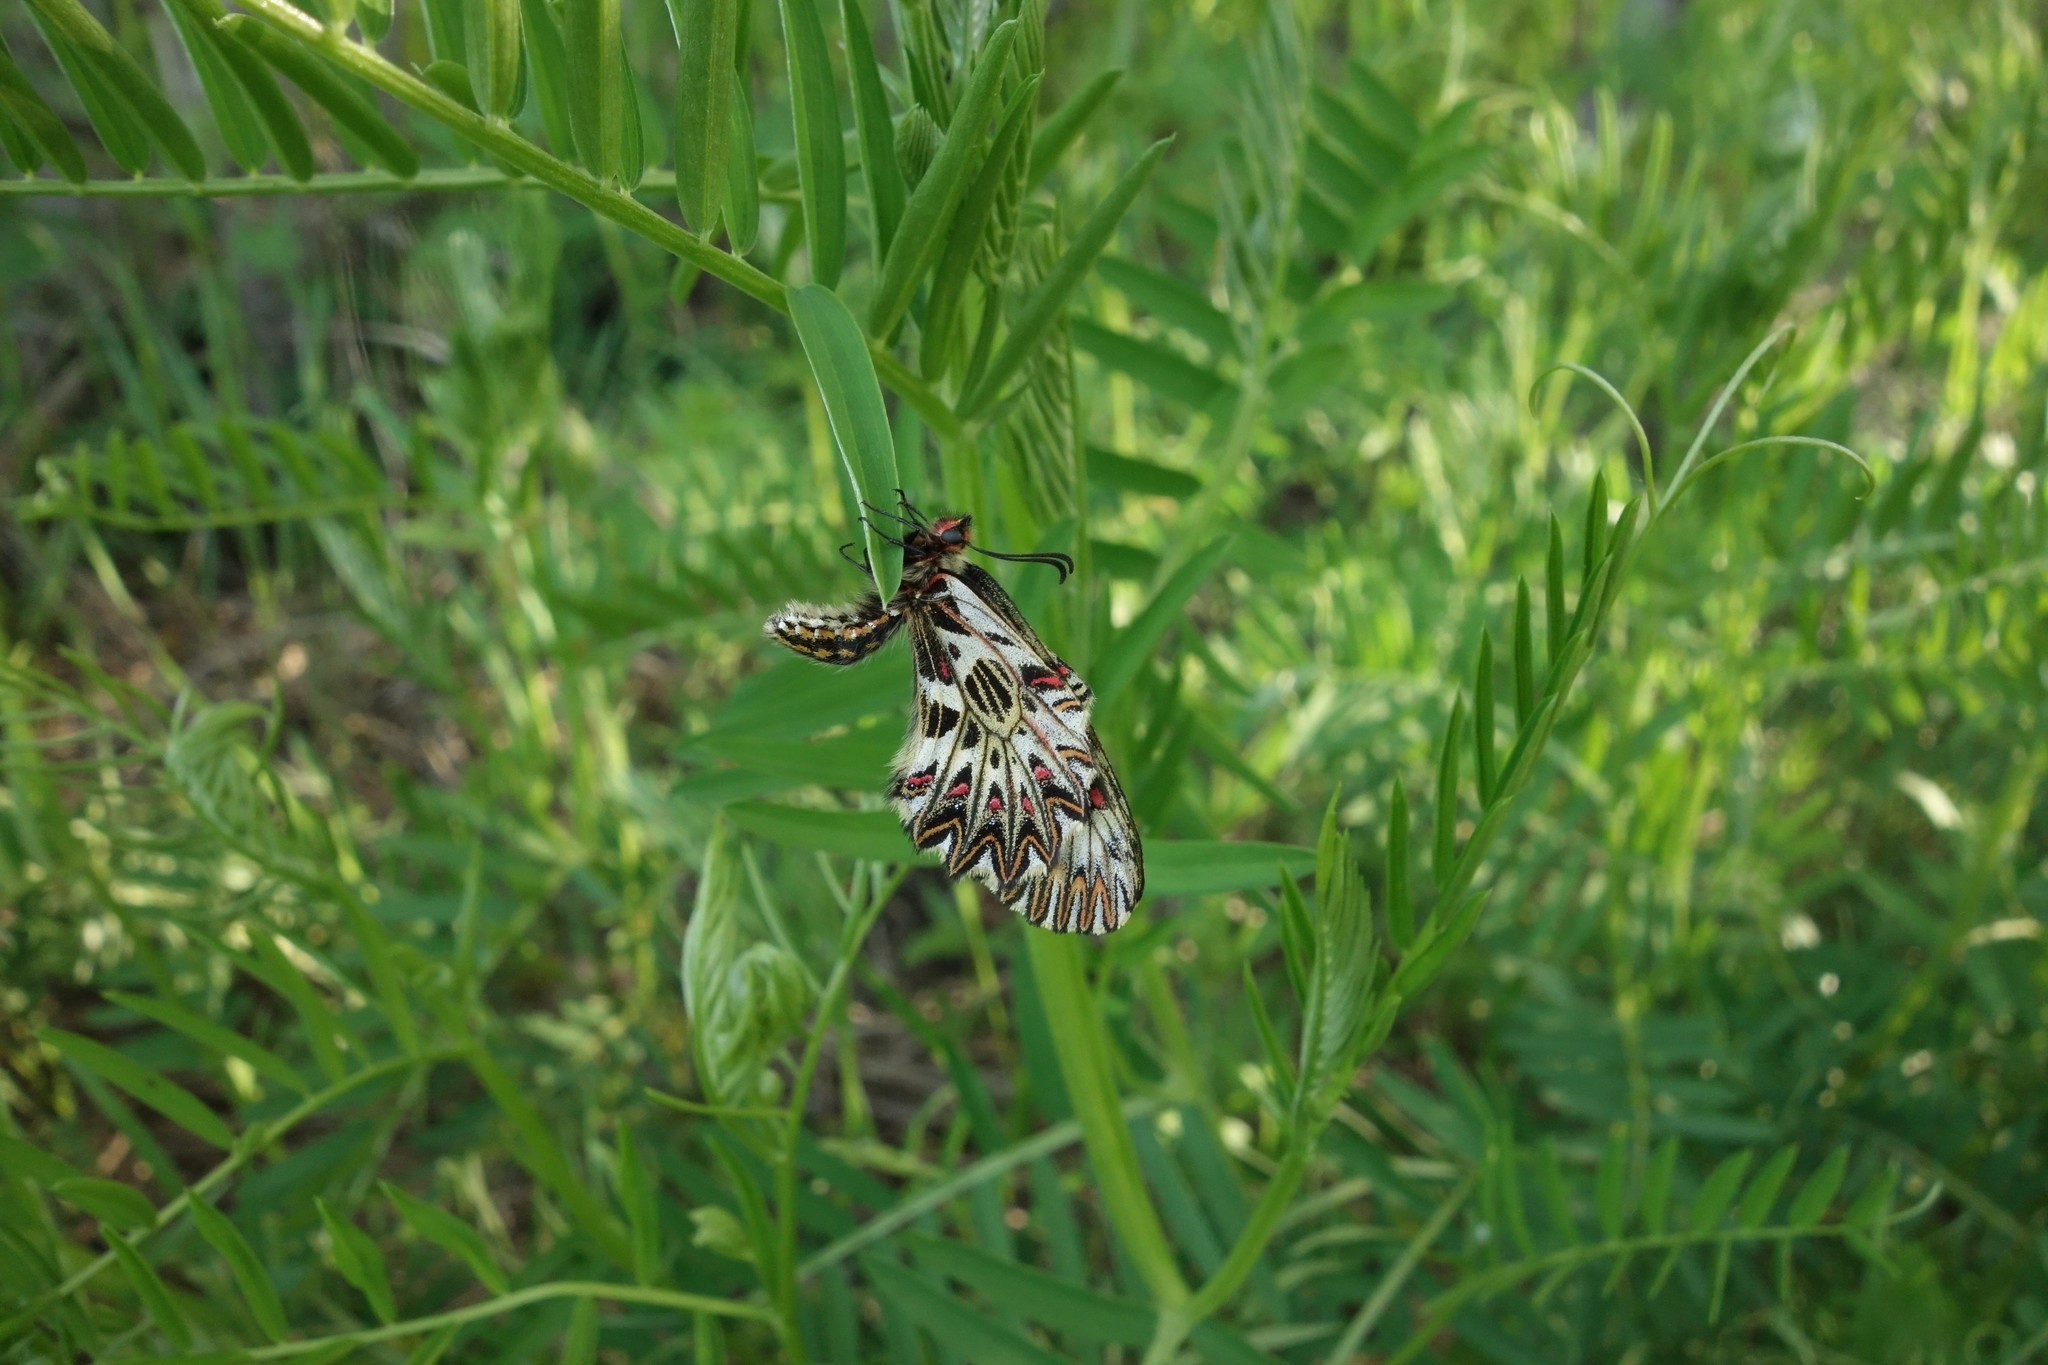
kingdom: Animalia
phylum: Arthropoda
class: Insecta
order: Lepidoptera
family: Papilionidae
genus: Zerynthia
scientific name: Zerynthia polyxena
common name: Southern festoon
